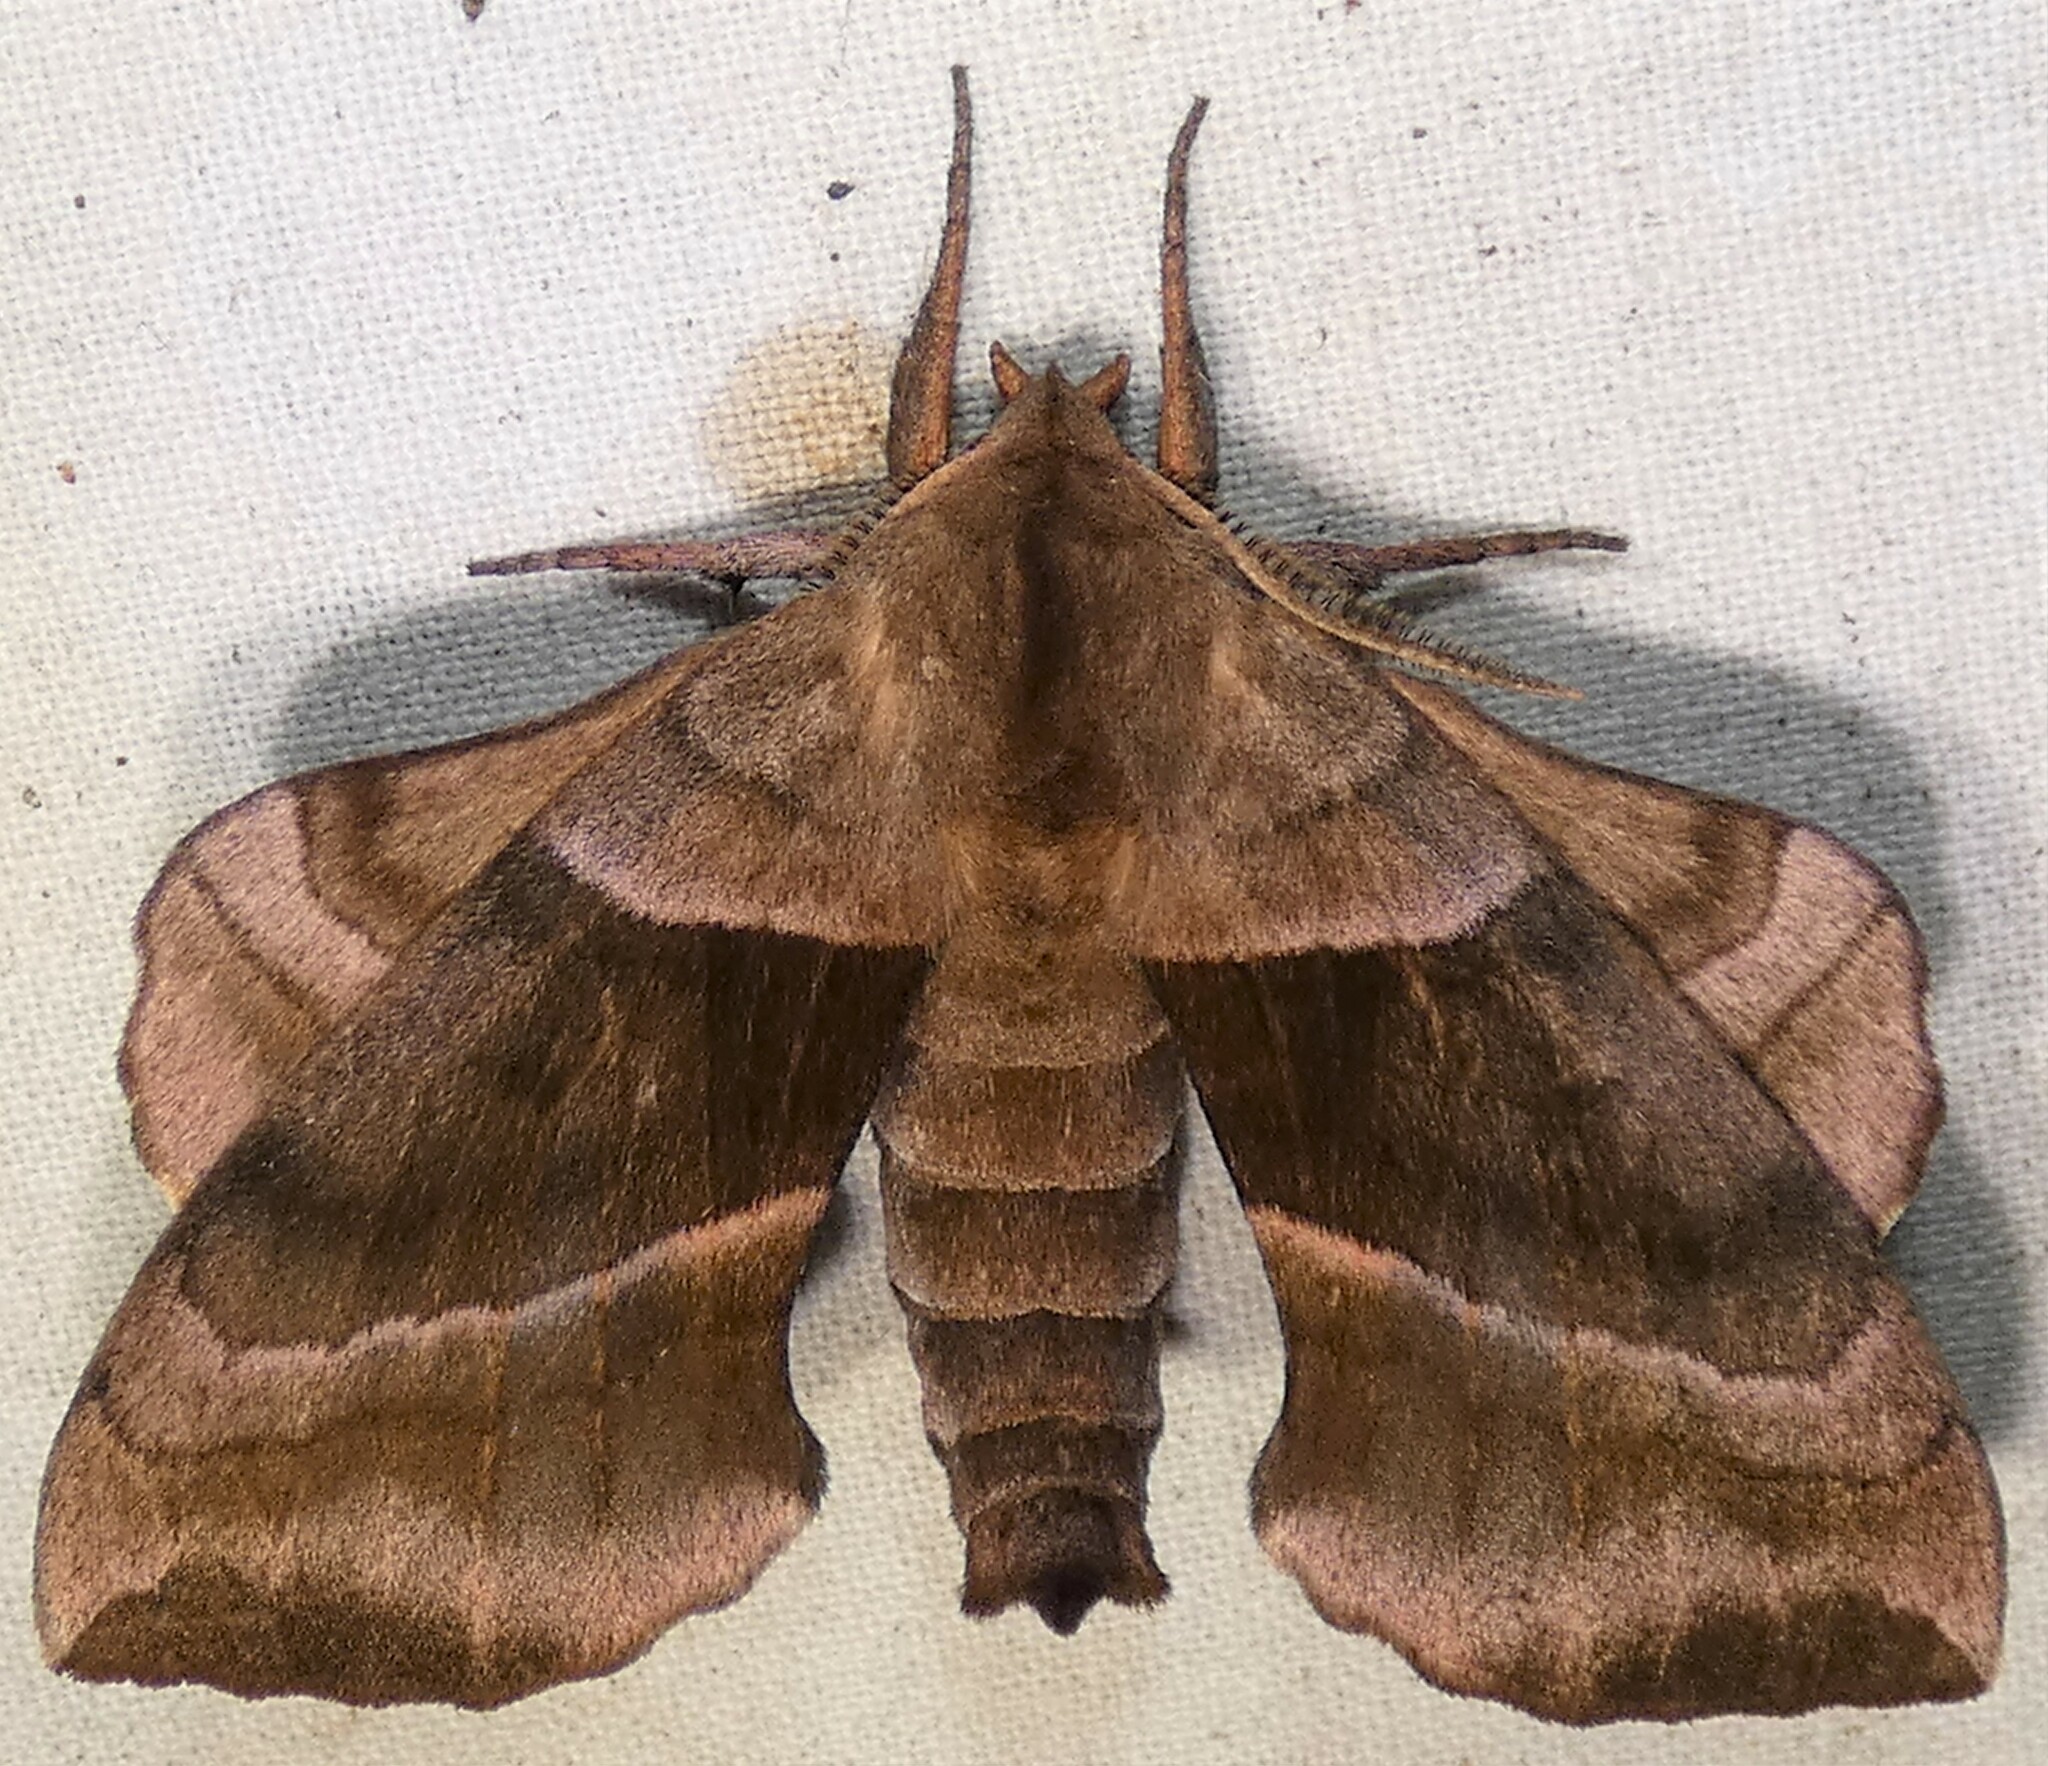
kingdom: Animalia
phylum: Arthropoda
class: Insecta
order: Lepidoptera
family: Sphingidae
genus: Amorpha
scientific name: Amorpha juglandis
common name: Walnut sphinx
